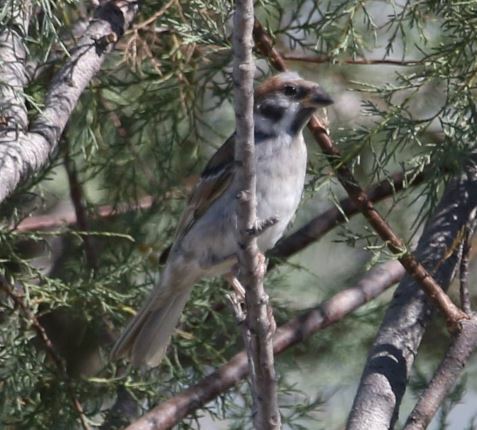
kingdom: Animalia
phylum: Chordata
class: Aves
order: Passeriformes
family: Passeridae
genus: Passer
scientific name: Passer montanus
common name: Eurasian tree sparrow
